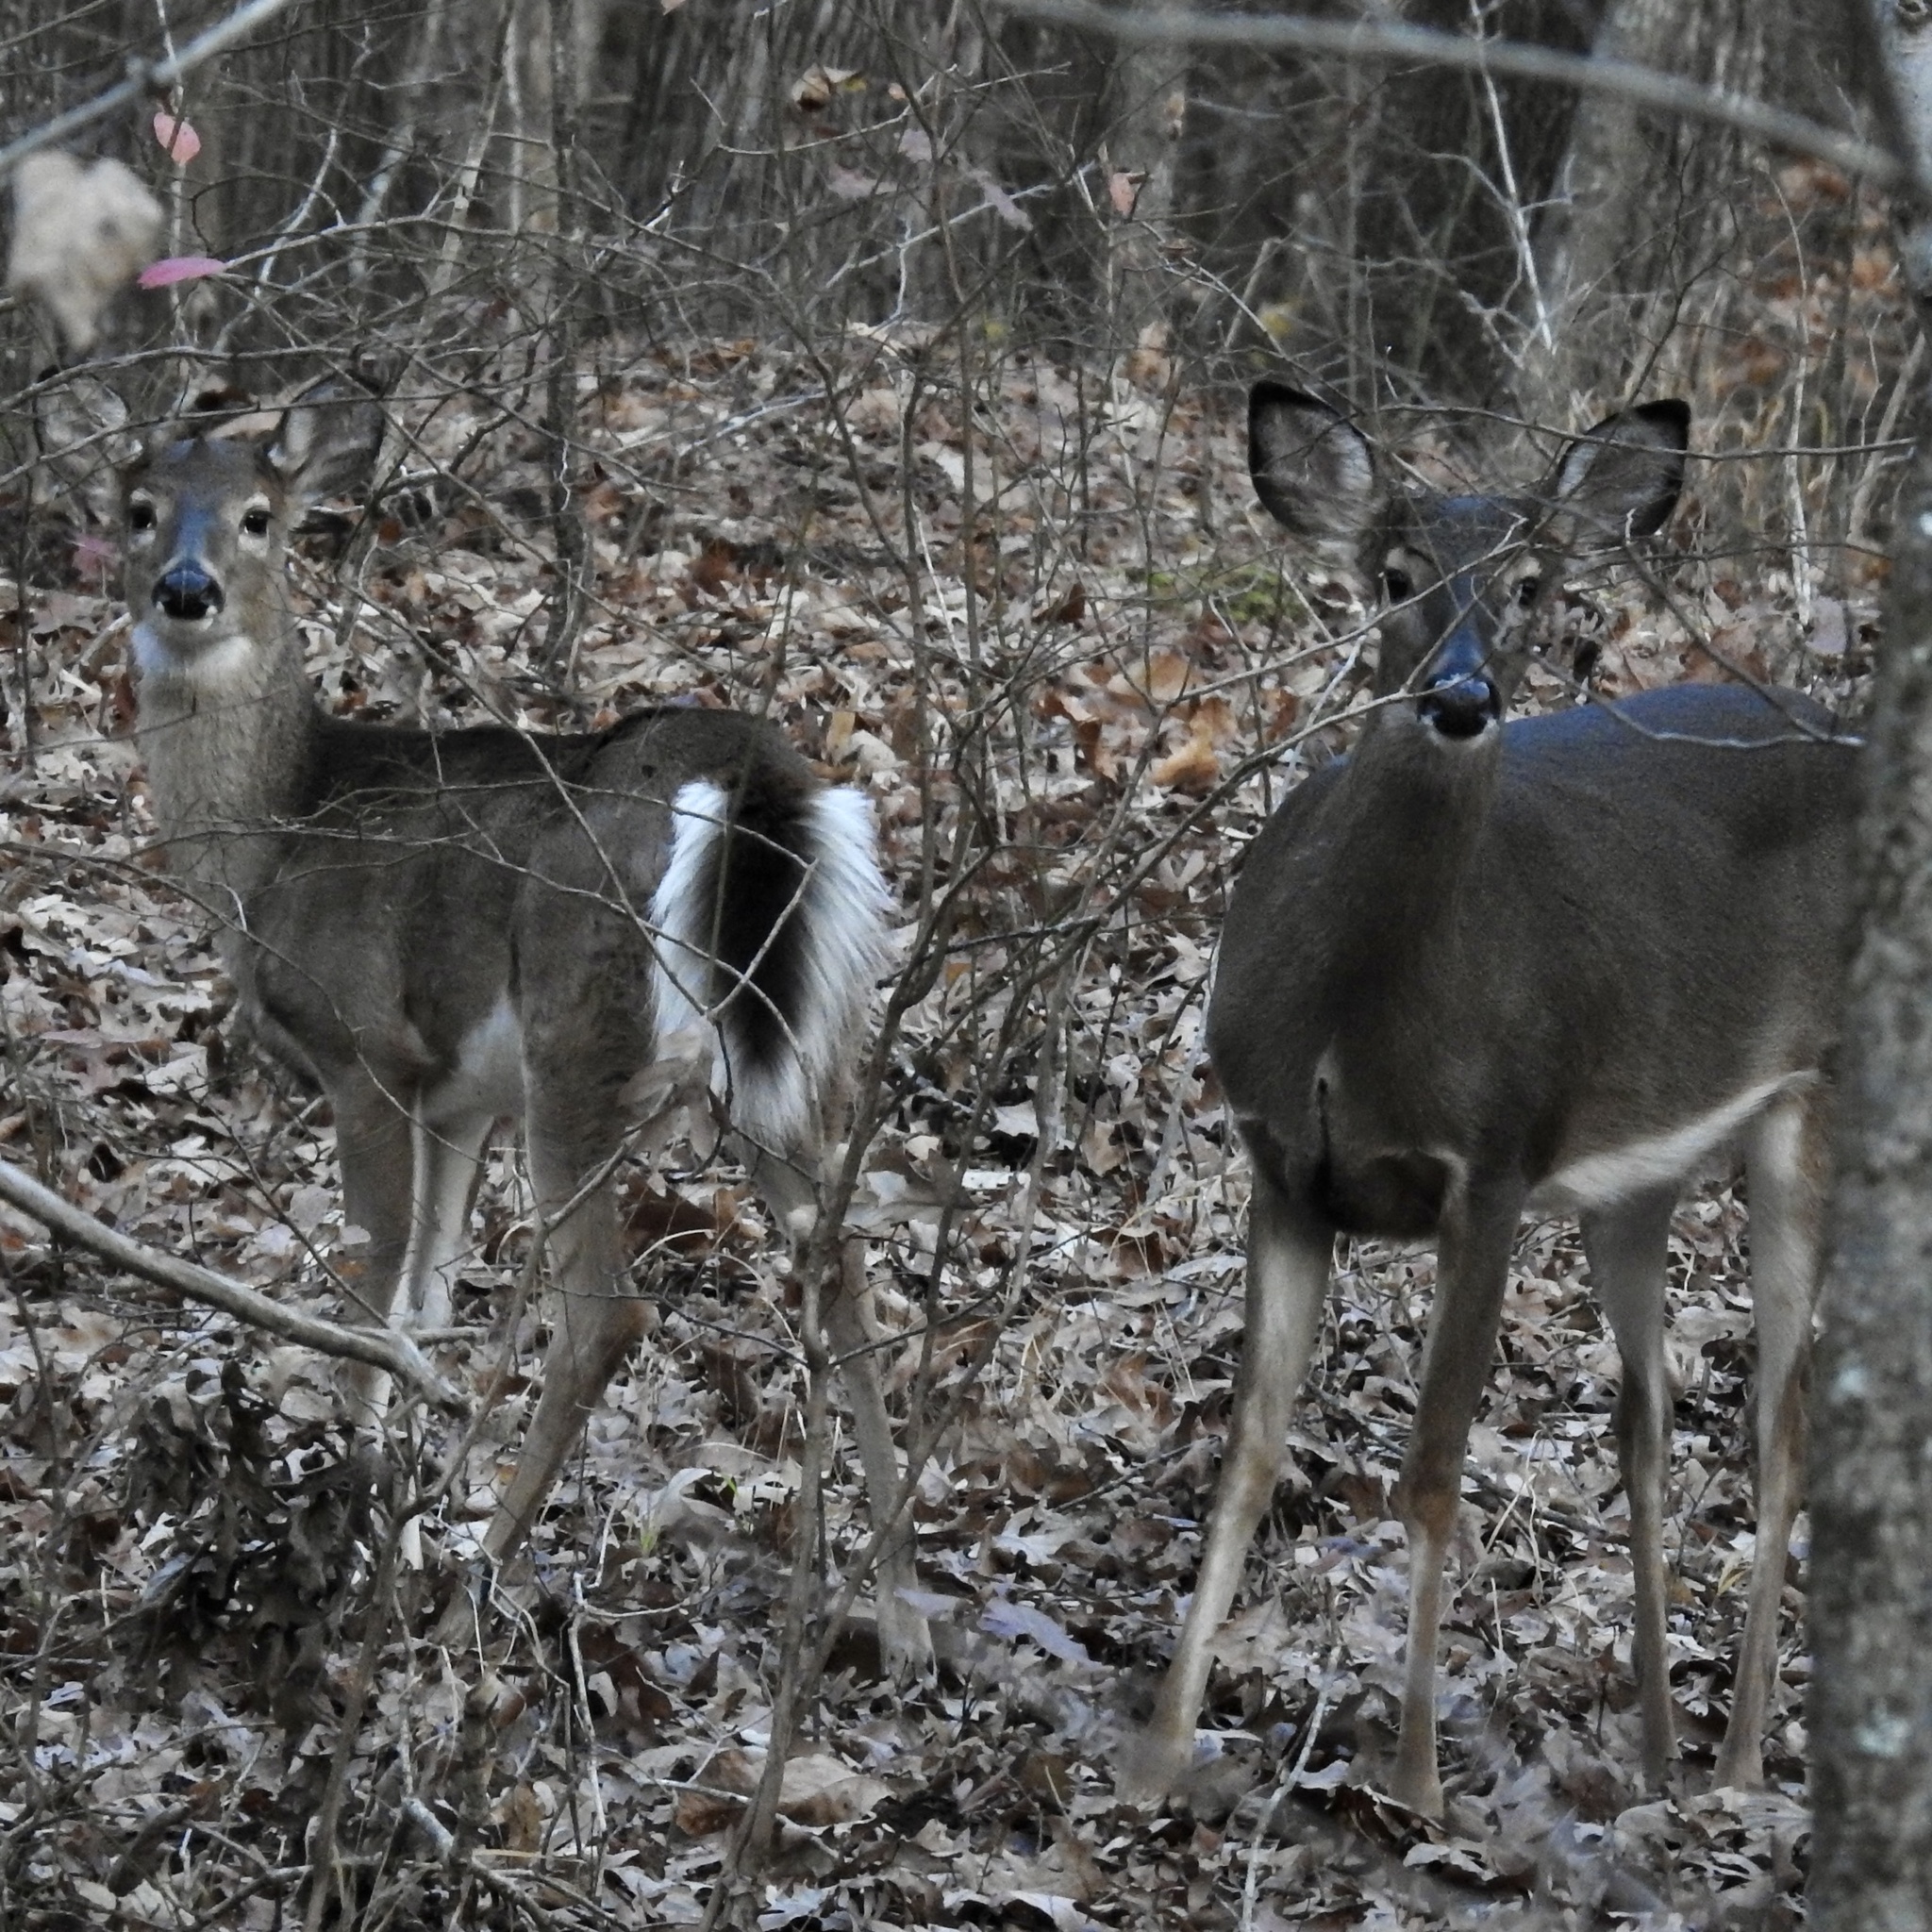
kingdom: Animalia
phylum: Chordata
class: Mammalia
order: Artiodactyla
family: Cervidae
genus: Odocoileus
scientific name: Odocoileus virginianus
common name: White-tailed deer
